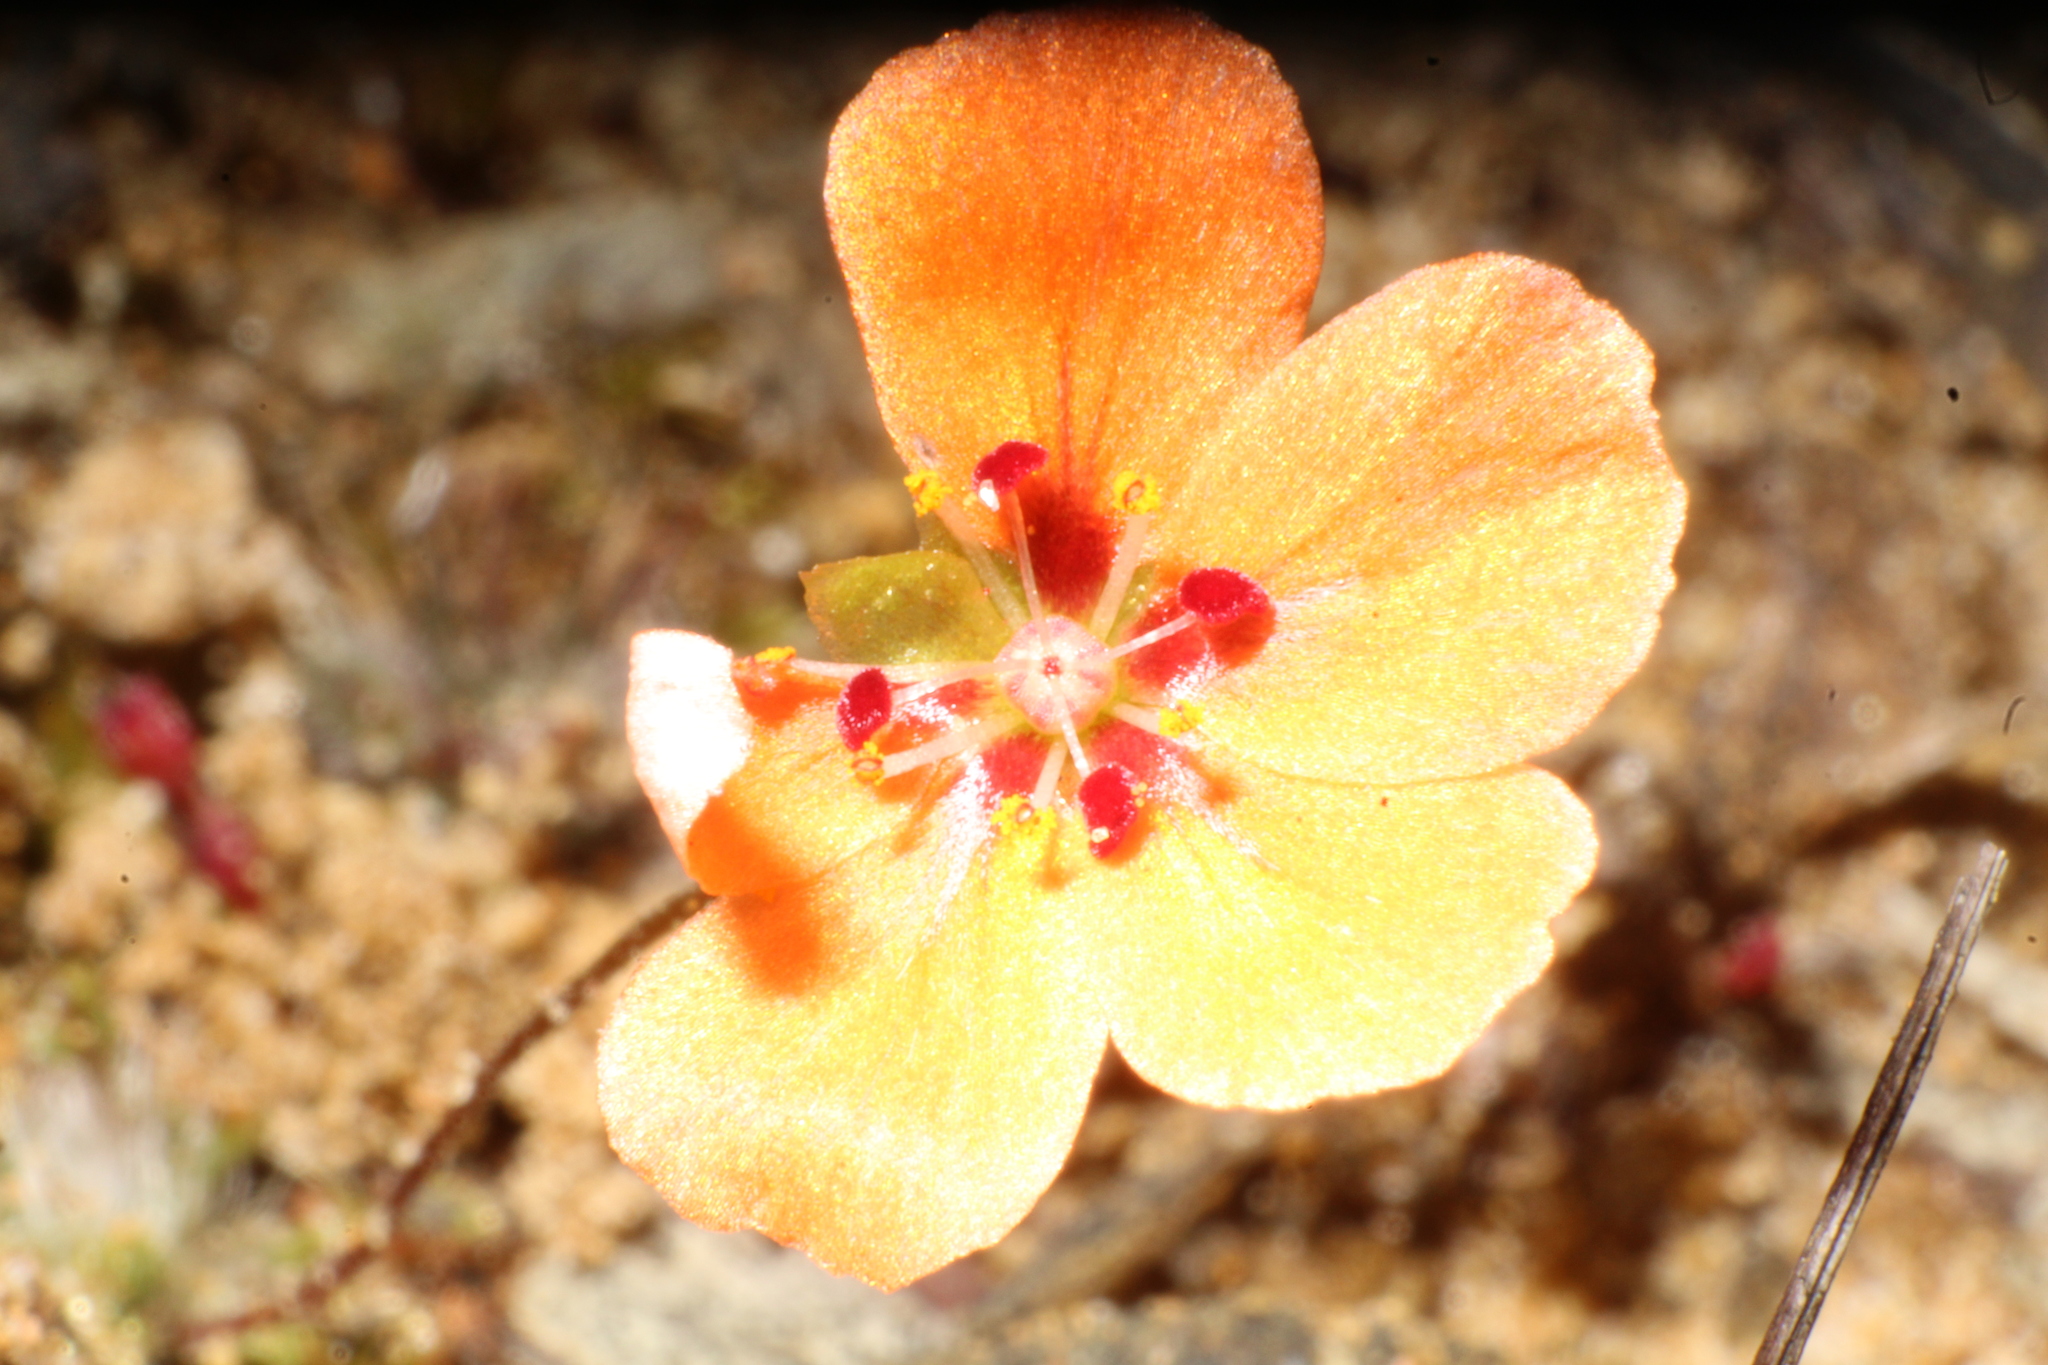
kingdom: Plantae
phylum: Tracheophyta
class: Magnoliopsida
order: Caryophyllales
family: Droseraceae
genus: Drosera
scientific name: Drosera platystigma
